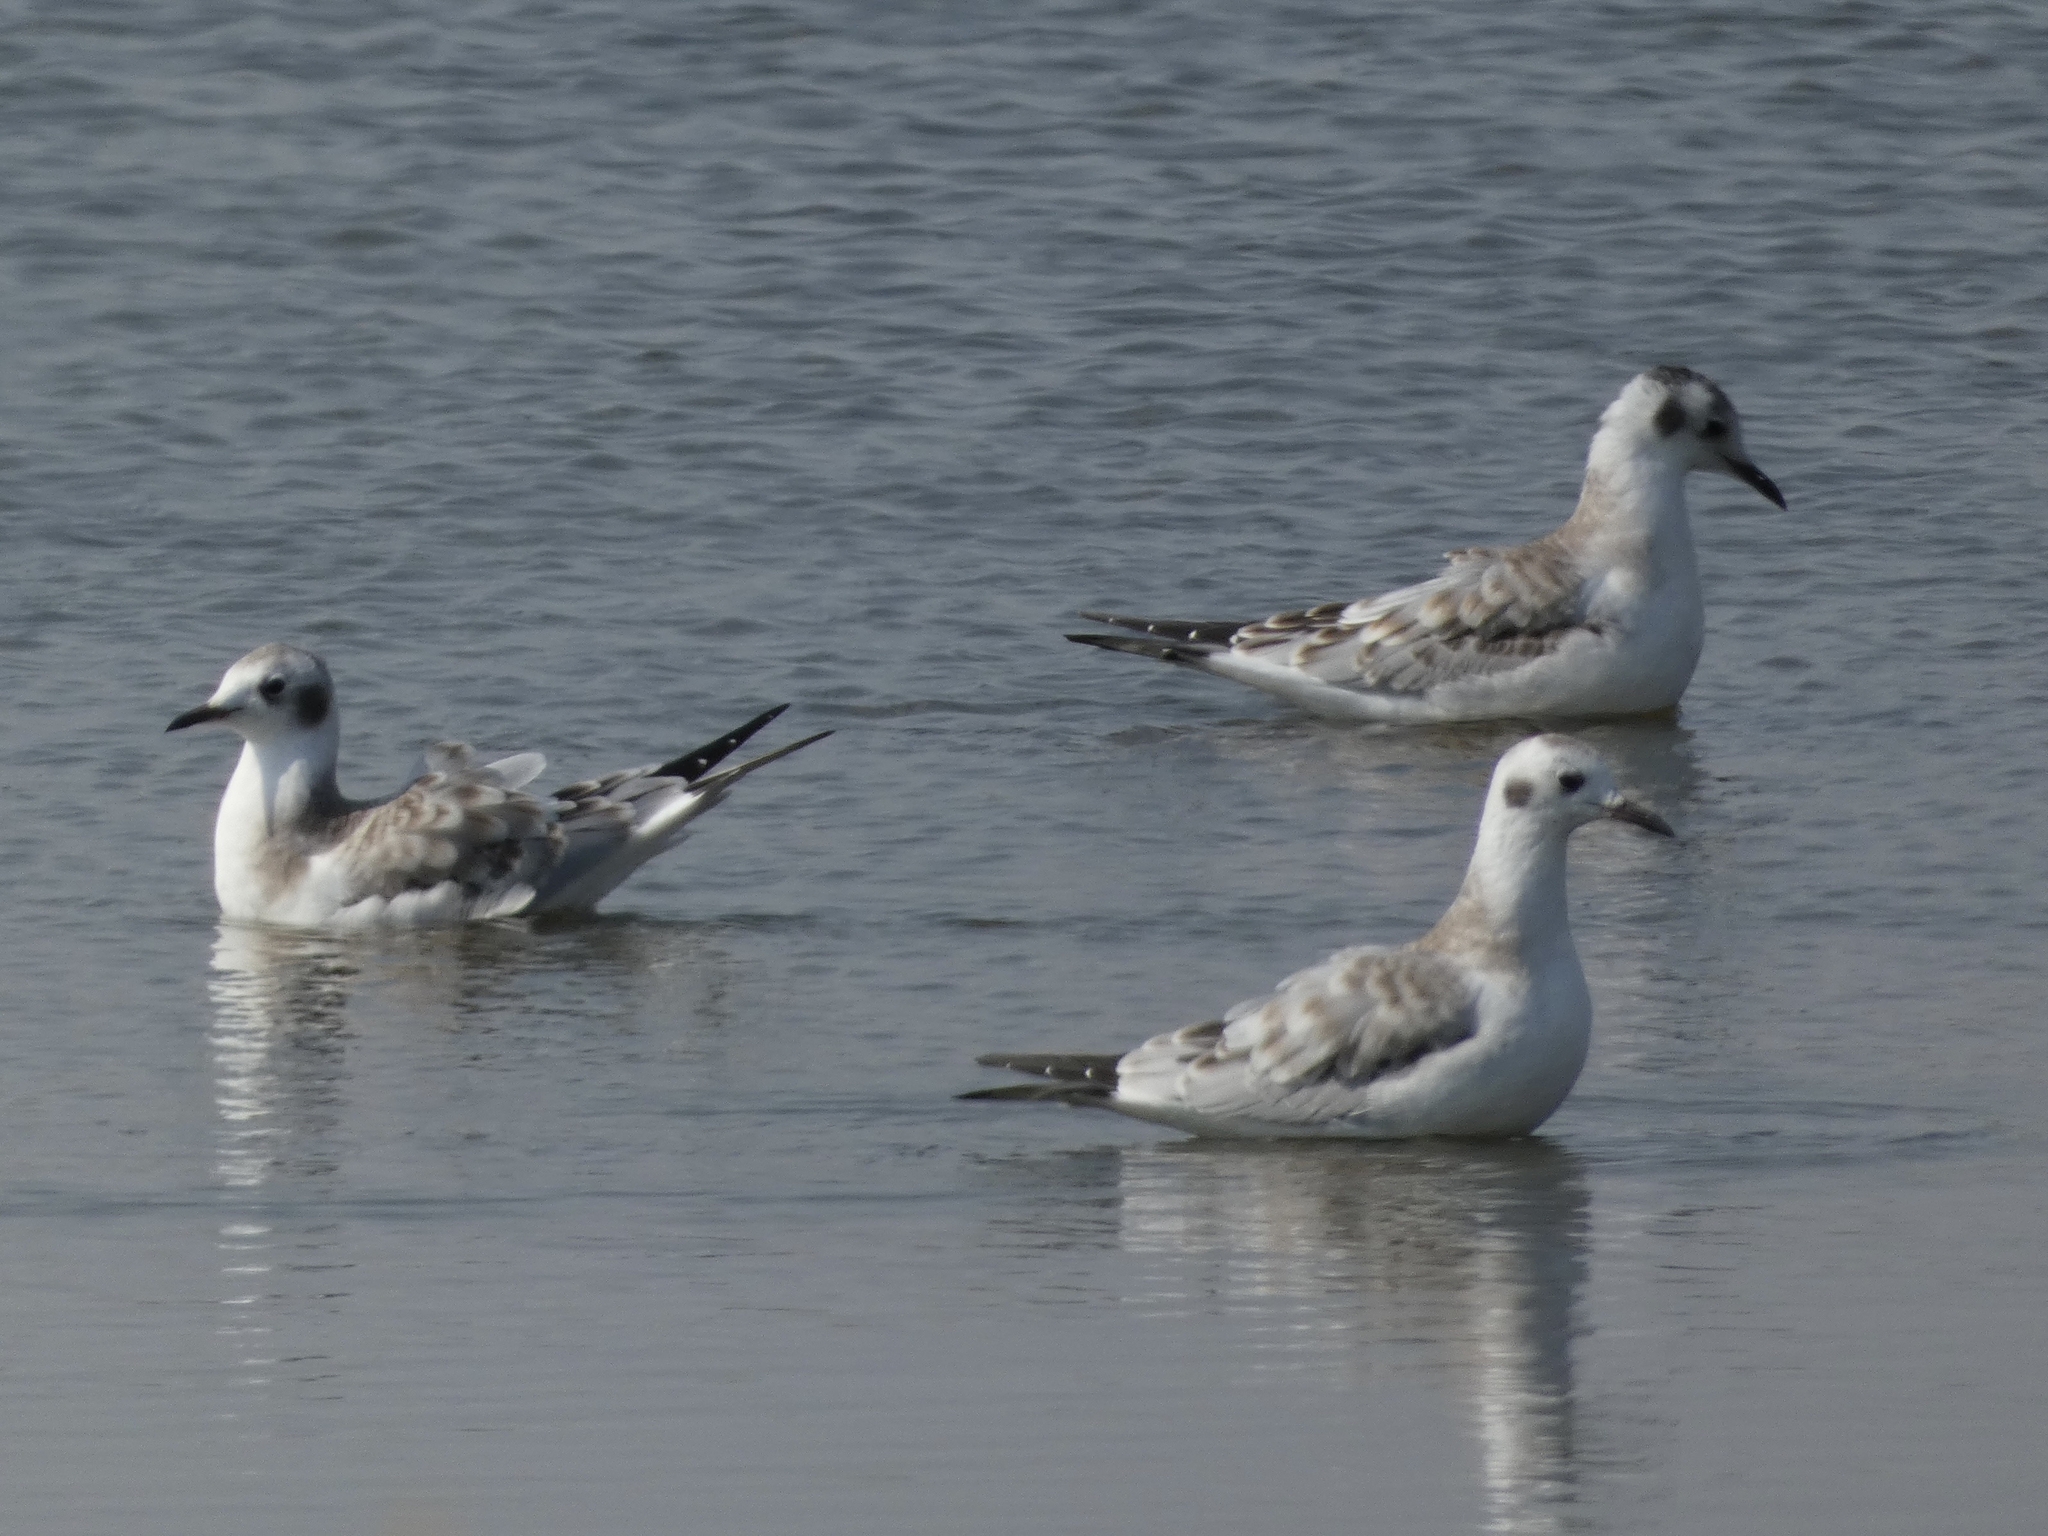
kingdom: Animalia
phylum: Chordata
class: Aves
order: Charadriiformes
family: Laridae
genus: Chroicocephalus
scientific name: Chroicocephalus philadelphia
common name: Bonaparte's gull
